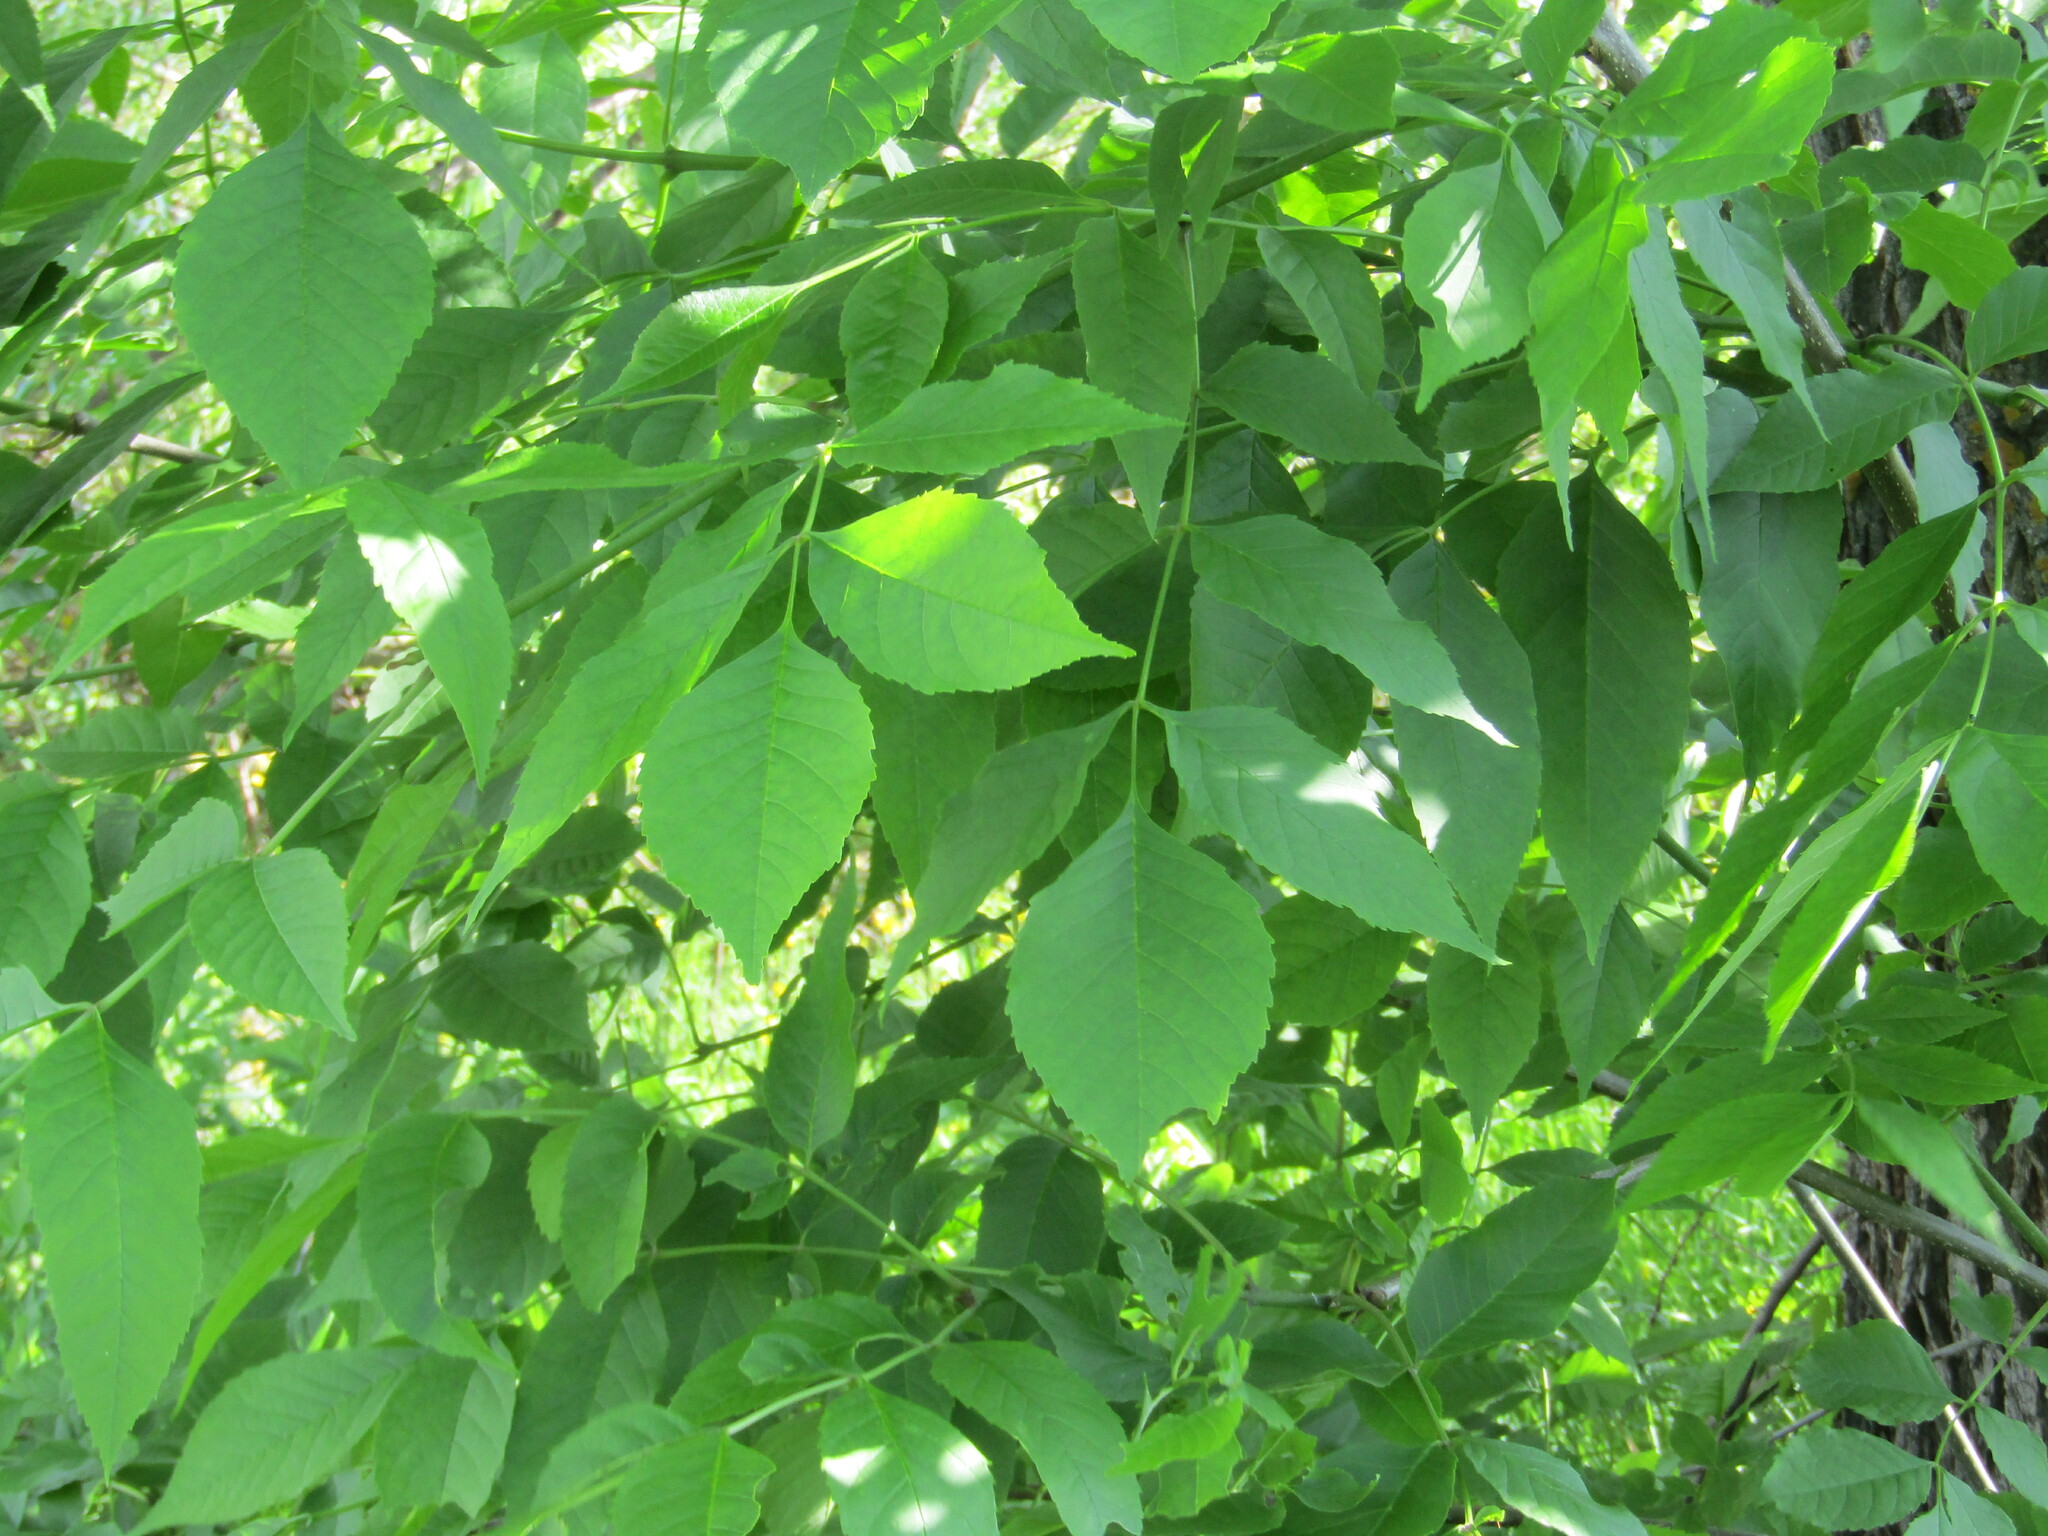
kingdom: Plantae
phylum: Tracheophyta
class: Magnoliopsida
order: Lamiales
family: Oleaceae
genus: Fraxinus
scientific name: Fraxinus pennsylvanica
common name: Green ash
